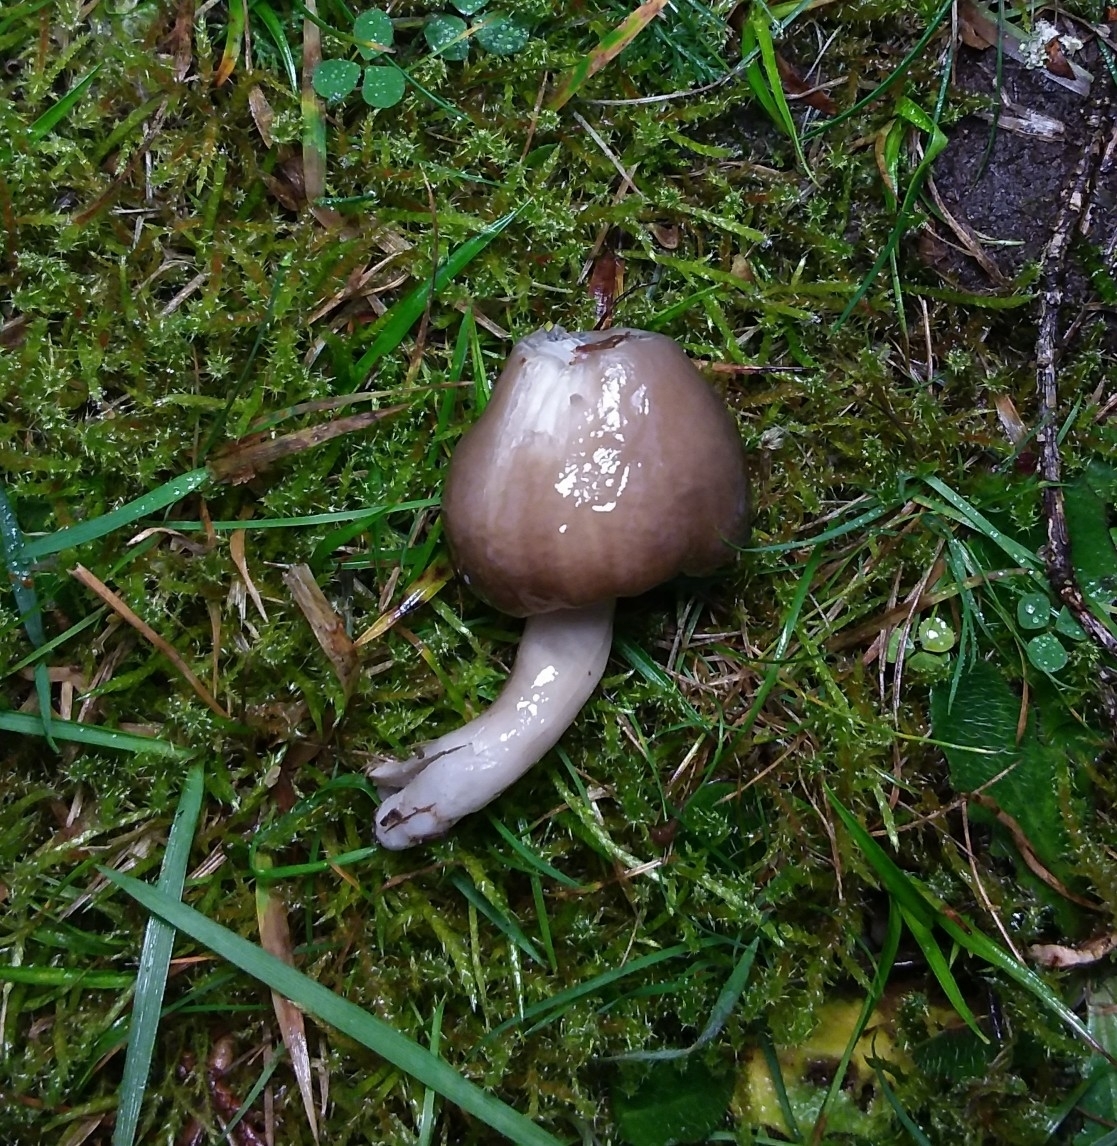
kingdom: Fungi
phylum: Basidiomycota
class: Agaricomycetes
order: Agaricales
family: Hygrophoraceae
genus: Gliophorus
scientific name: Gliophorus irrigatus
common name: Slimy waxcap
